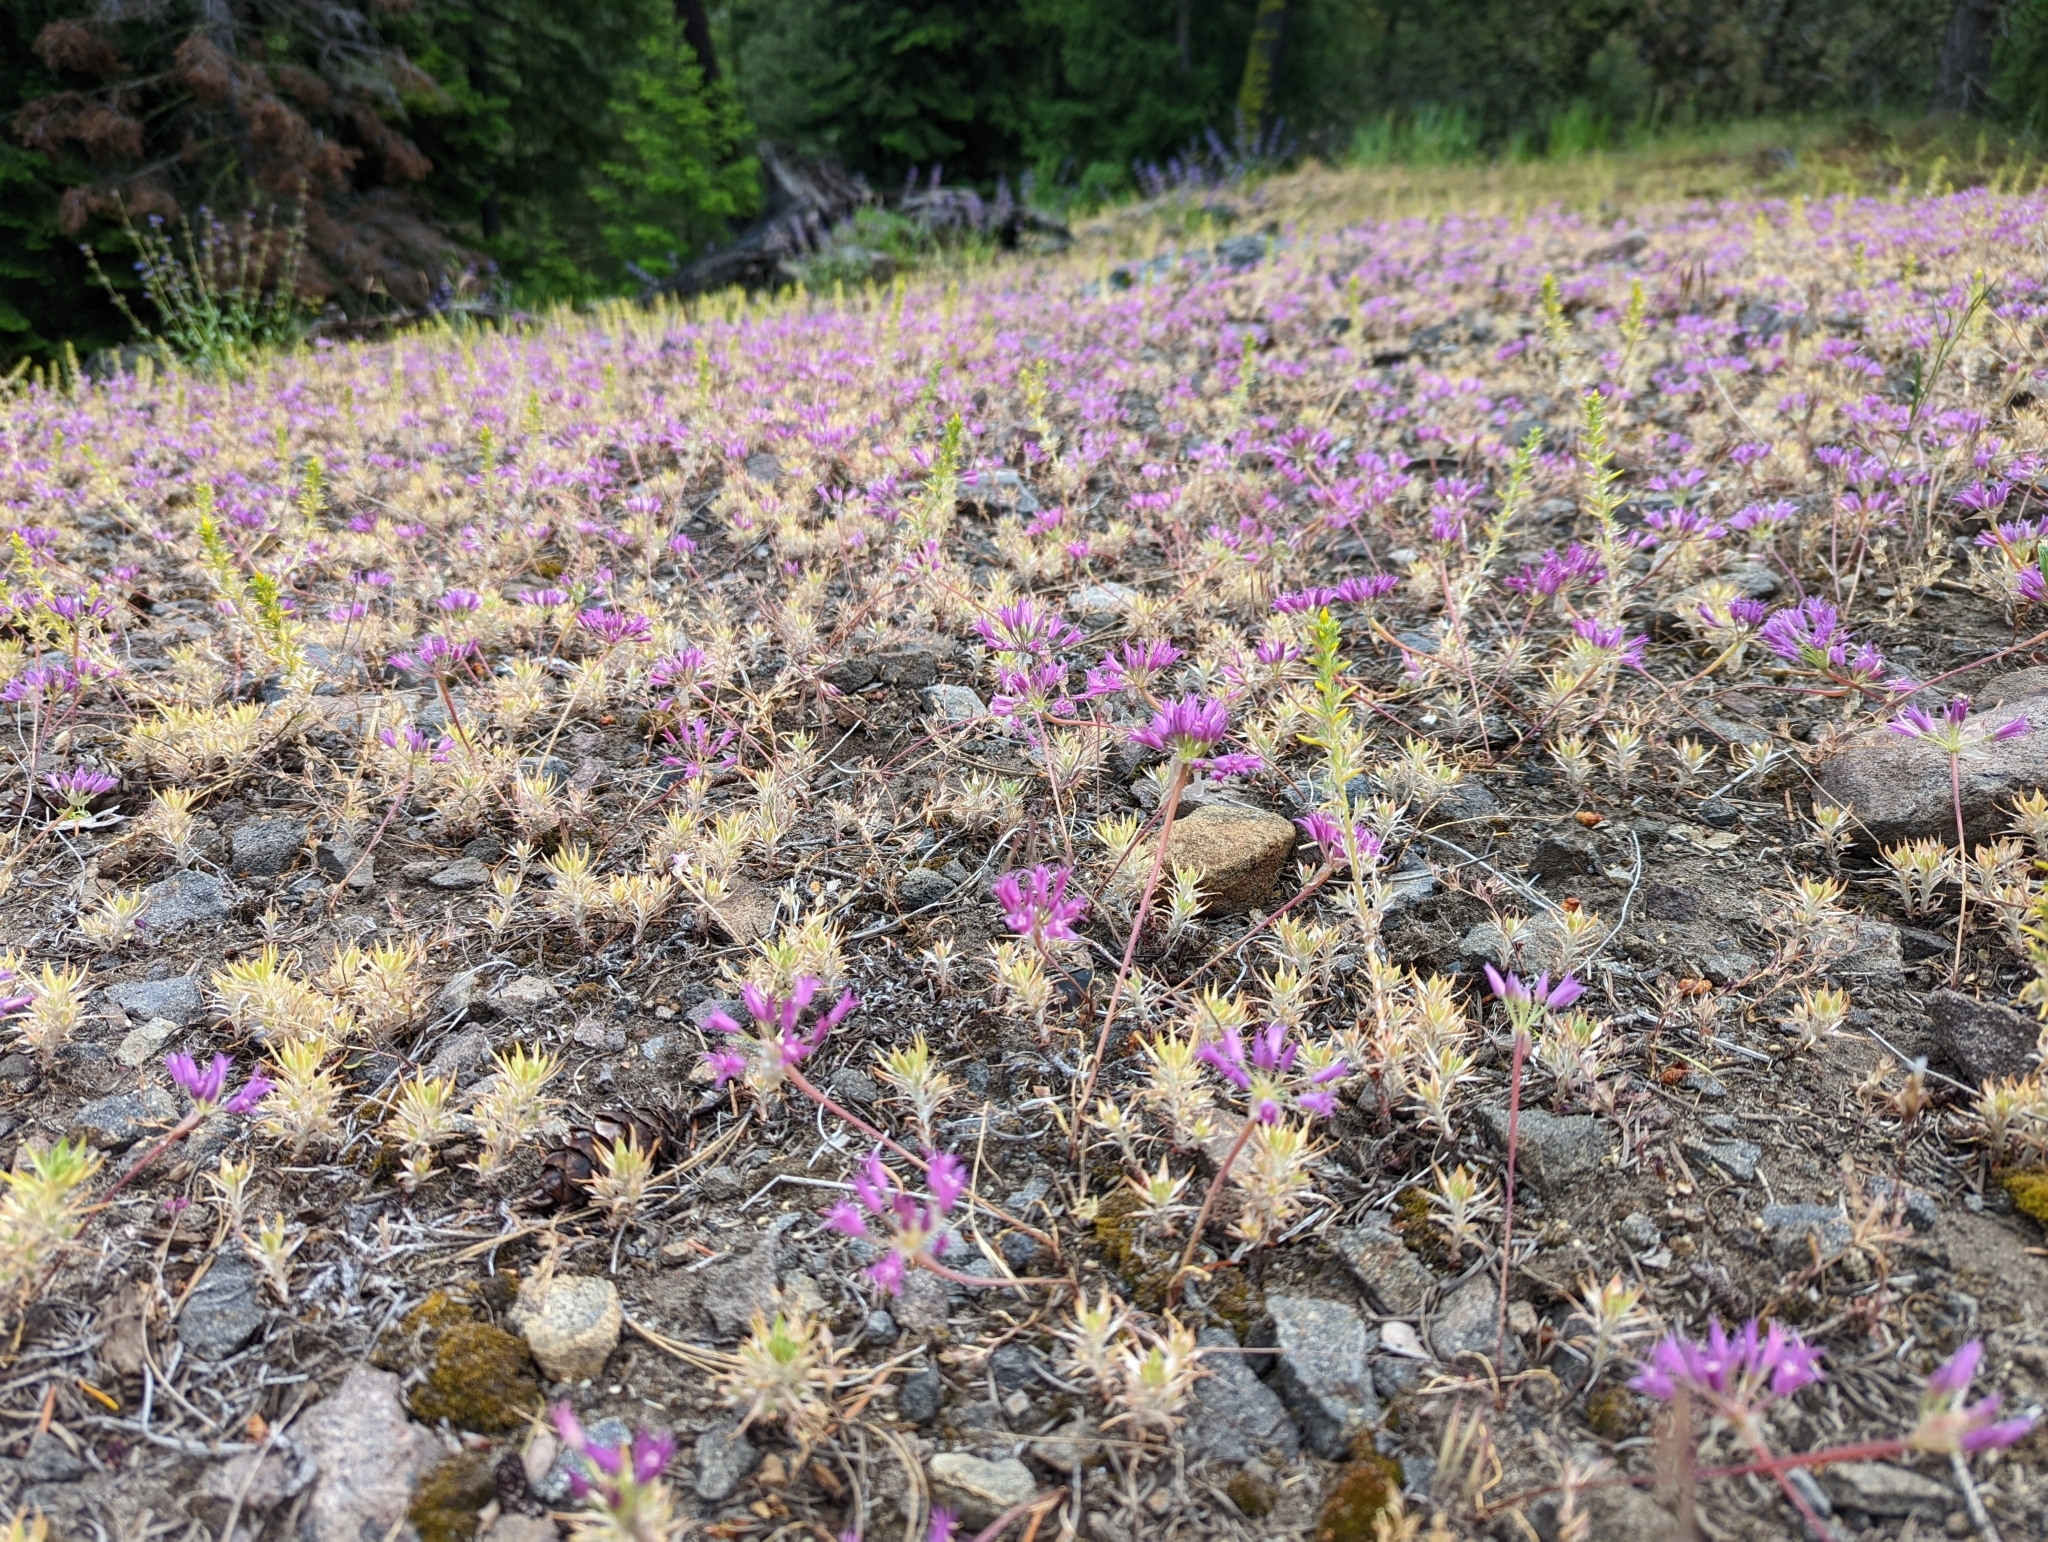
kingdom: Plantae
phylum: Tracheophyta
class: Liliopsida
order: Asparagales
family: Amaryllidaceae
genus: Allium
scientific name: Allium acuminatum
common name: Hooker's onion
